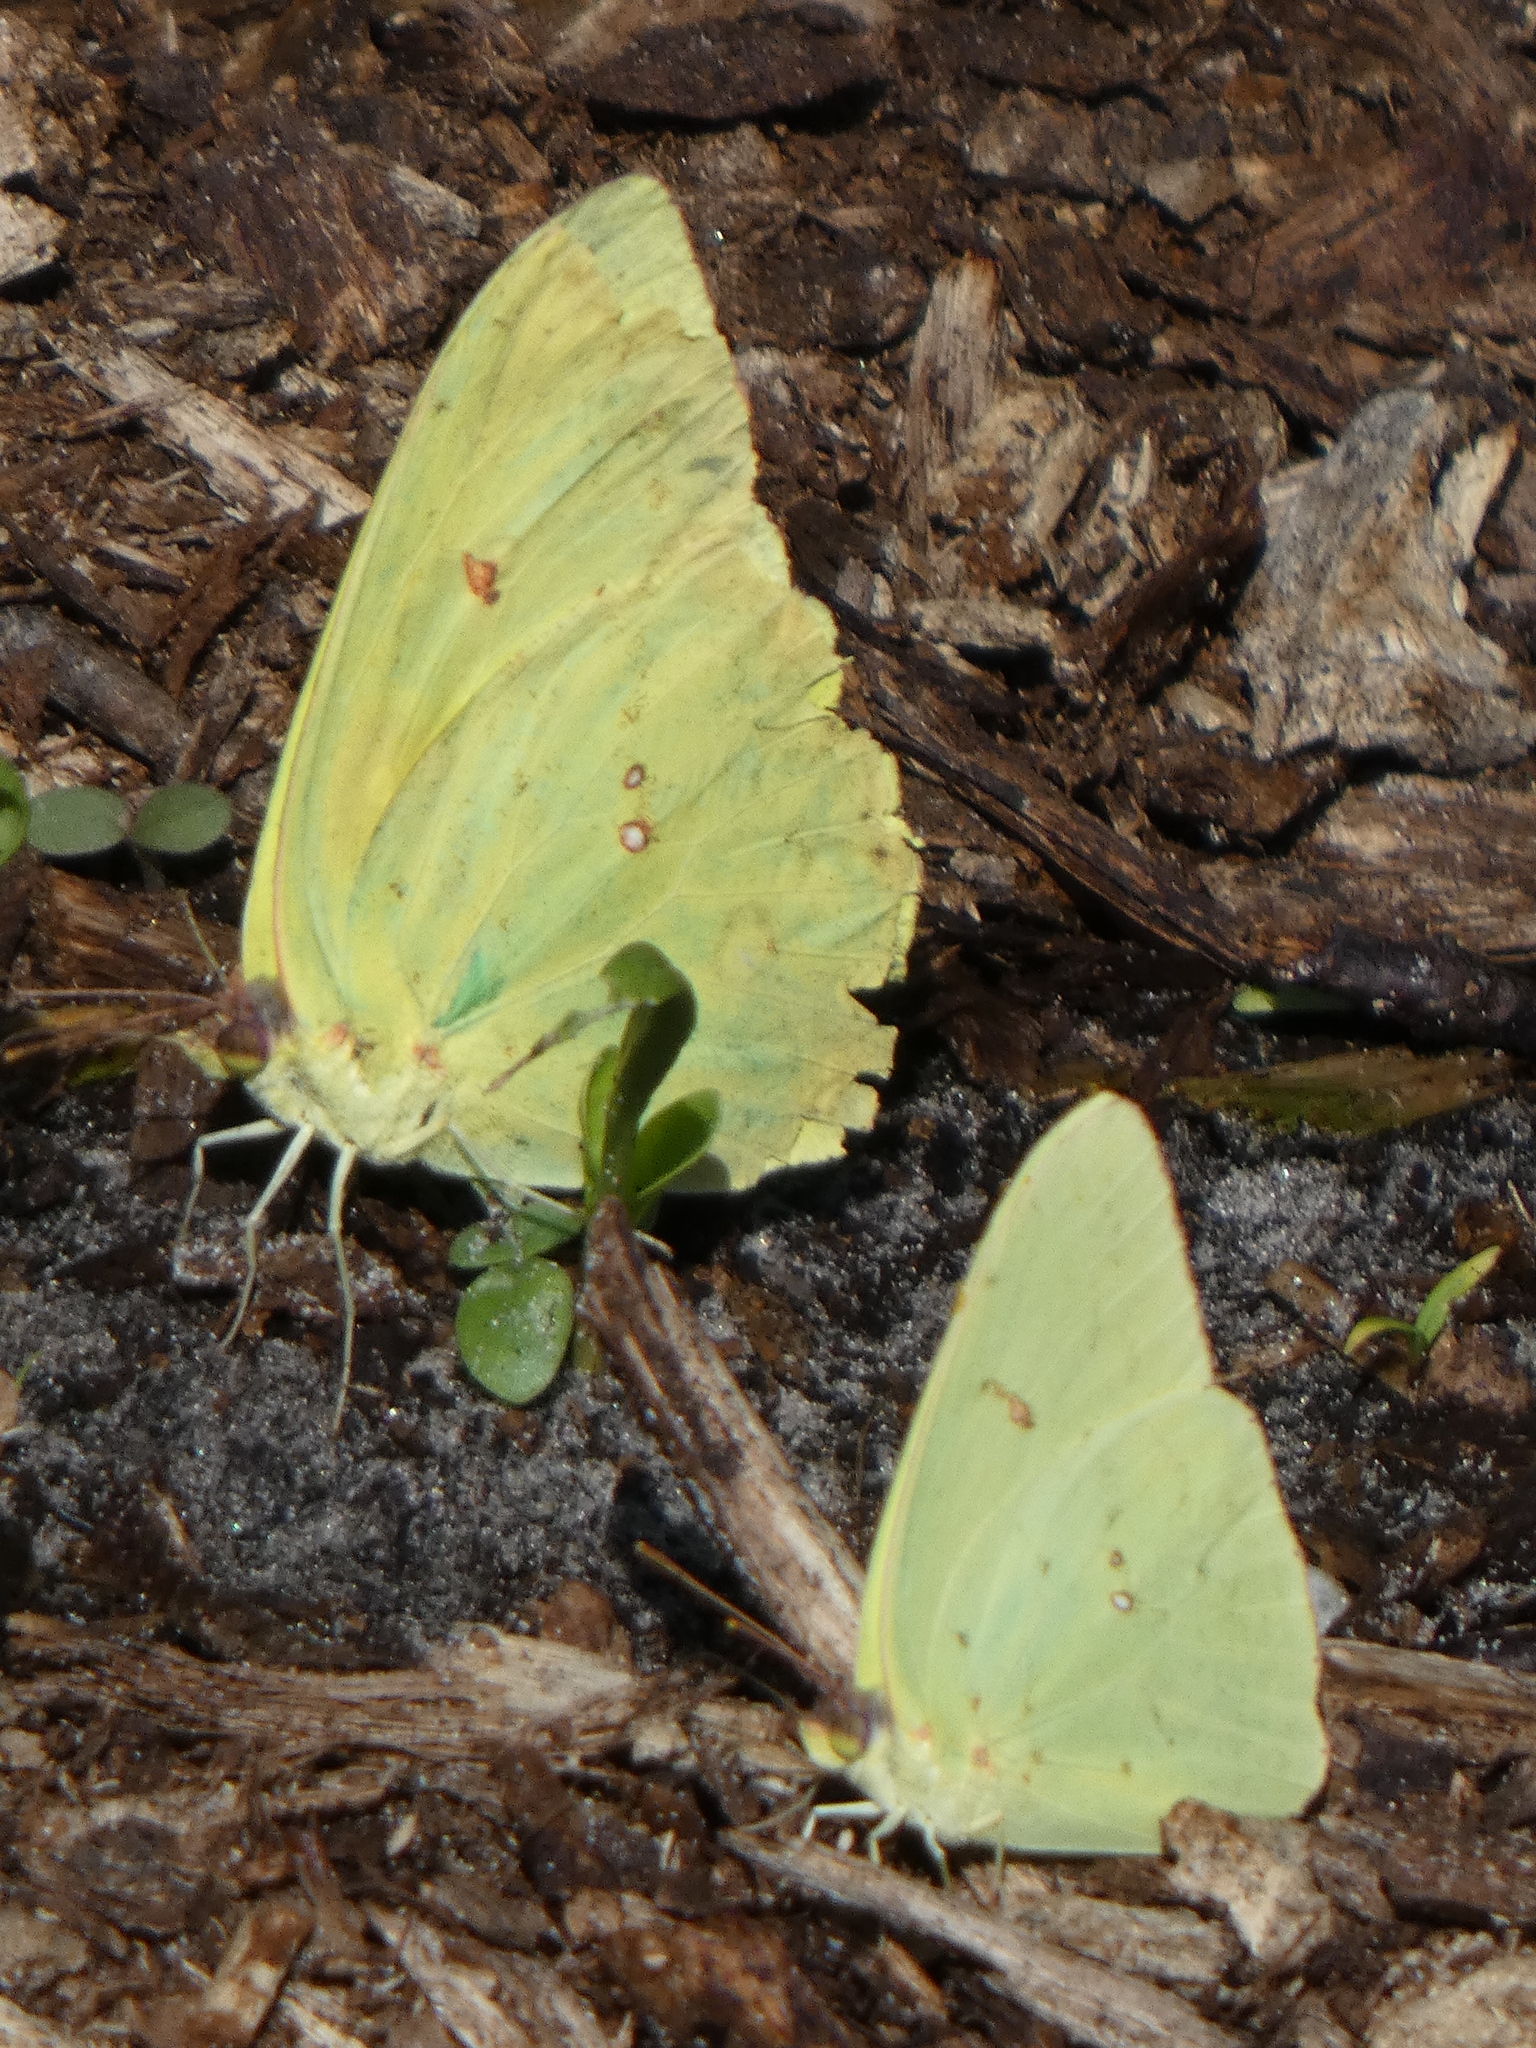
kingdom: Animalia
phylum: Arthropoda
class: Insecta
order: Lepidoptera
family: Pieridae
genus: Phoebis
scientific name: Phoebis sennae
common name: Cloudless sulphur
